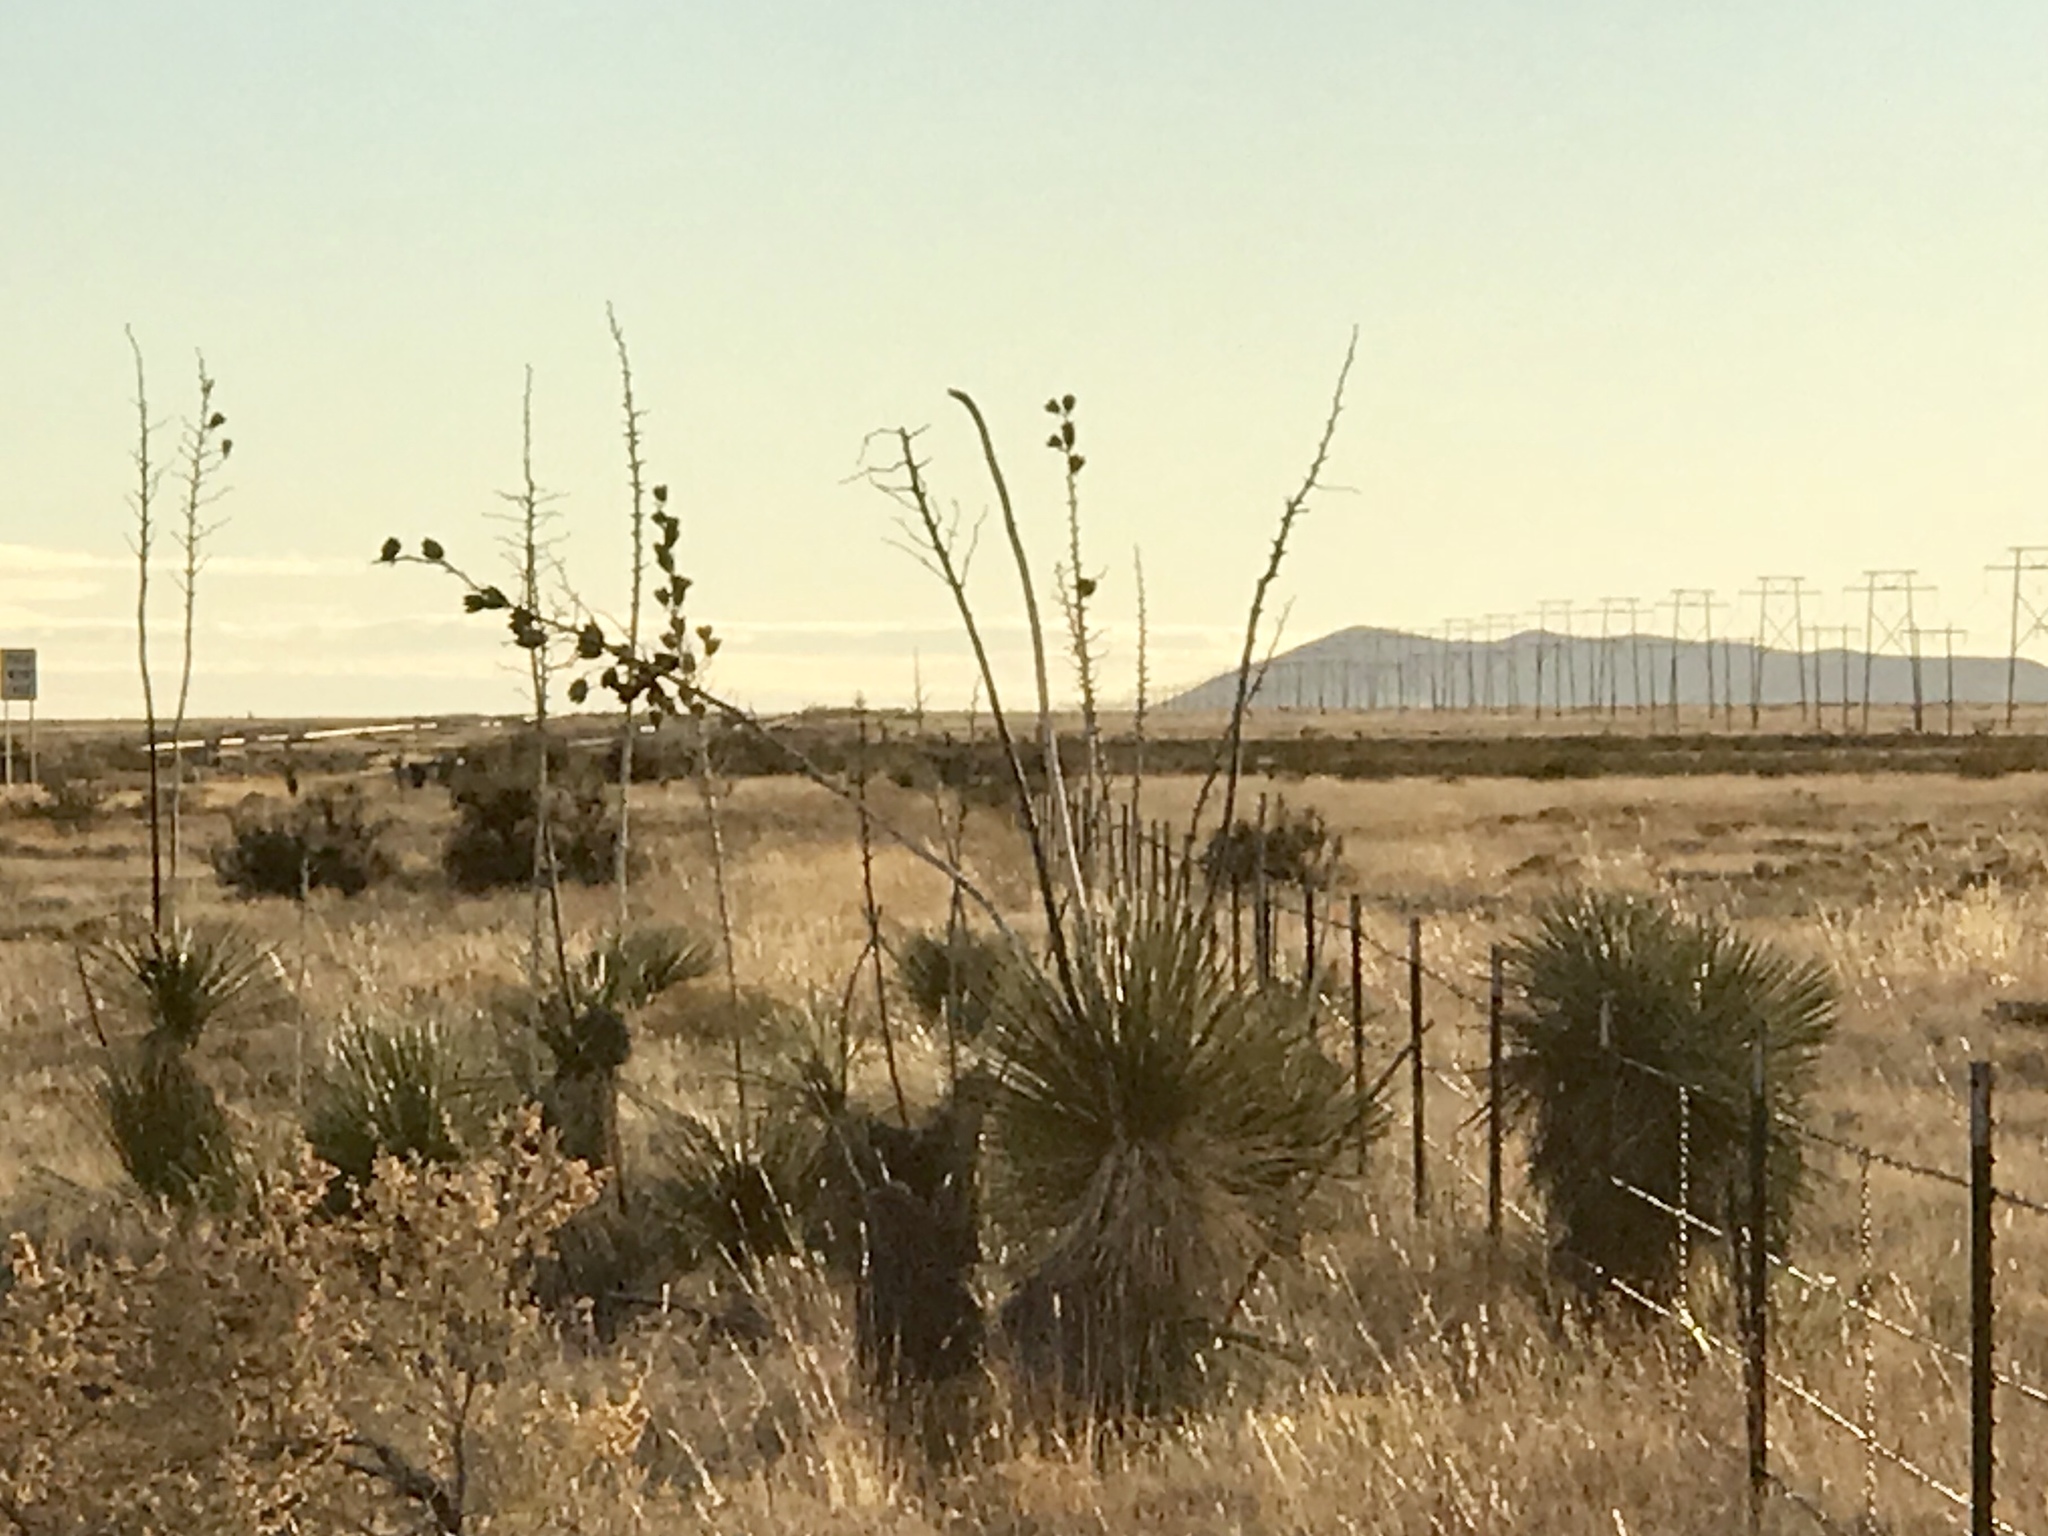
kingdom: Plantae
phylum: Tracheophyta
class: Liliopsida
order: Asparagales
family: Asparagaceae
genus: Yucca
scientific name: Yucca elata
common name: Palmella
